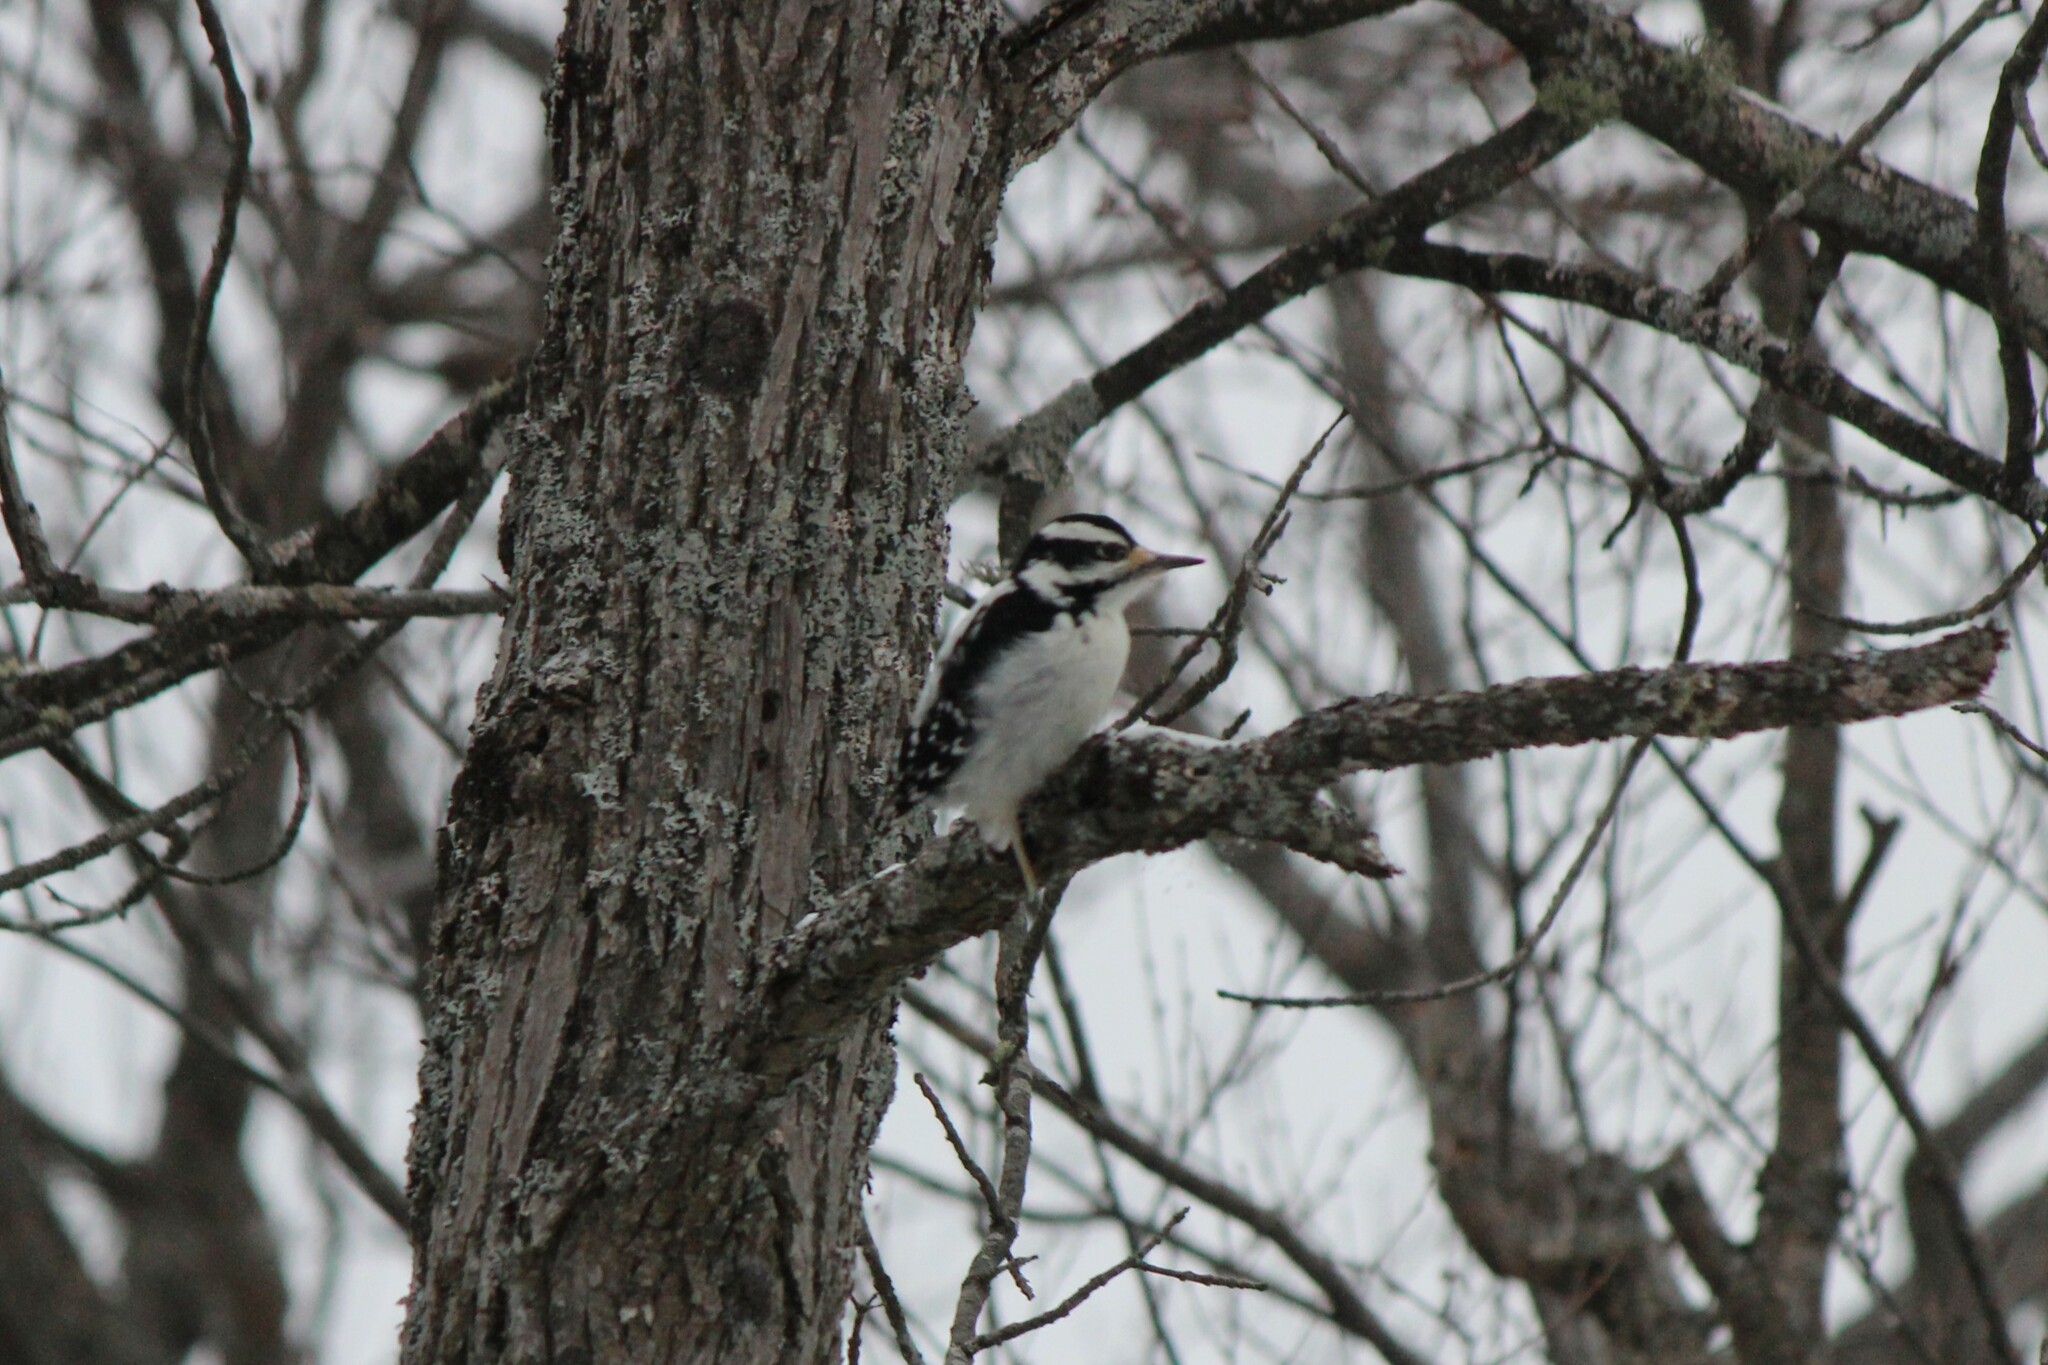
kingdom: Animalia
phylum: Chordata
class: Aves
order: Piciformes
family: Picidae
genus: Leuconotopicus
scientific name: Leuconotopicus villosus
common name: Hairy woodpecker
